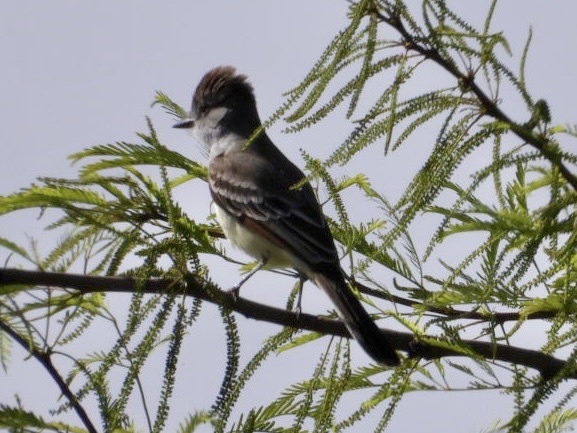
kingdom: Animalia
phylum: Chordata
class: Aves
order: Passeriformes
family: Tyrannidae
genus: Myiarchus
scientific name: Myiarchus cinerascens
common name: Ash-throated flycatcher
